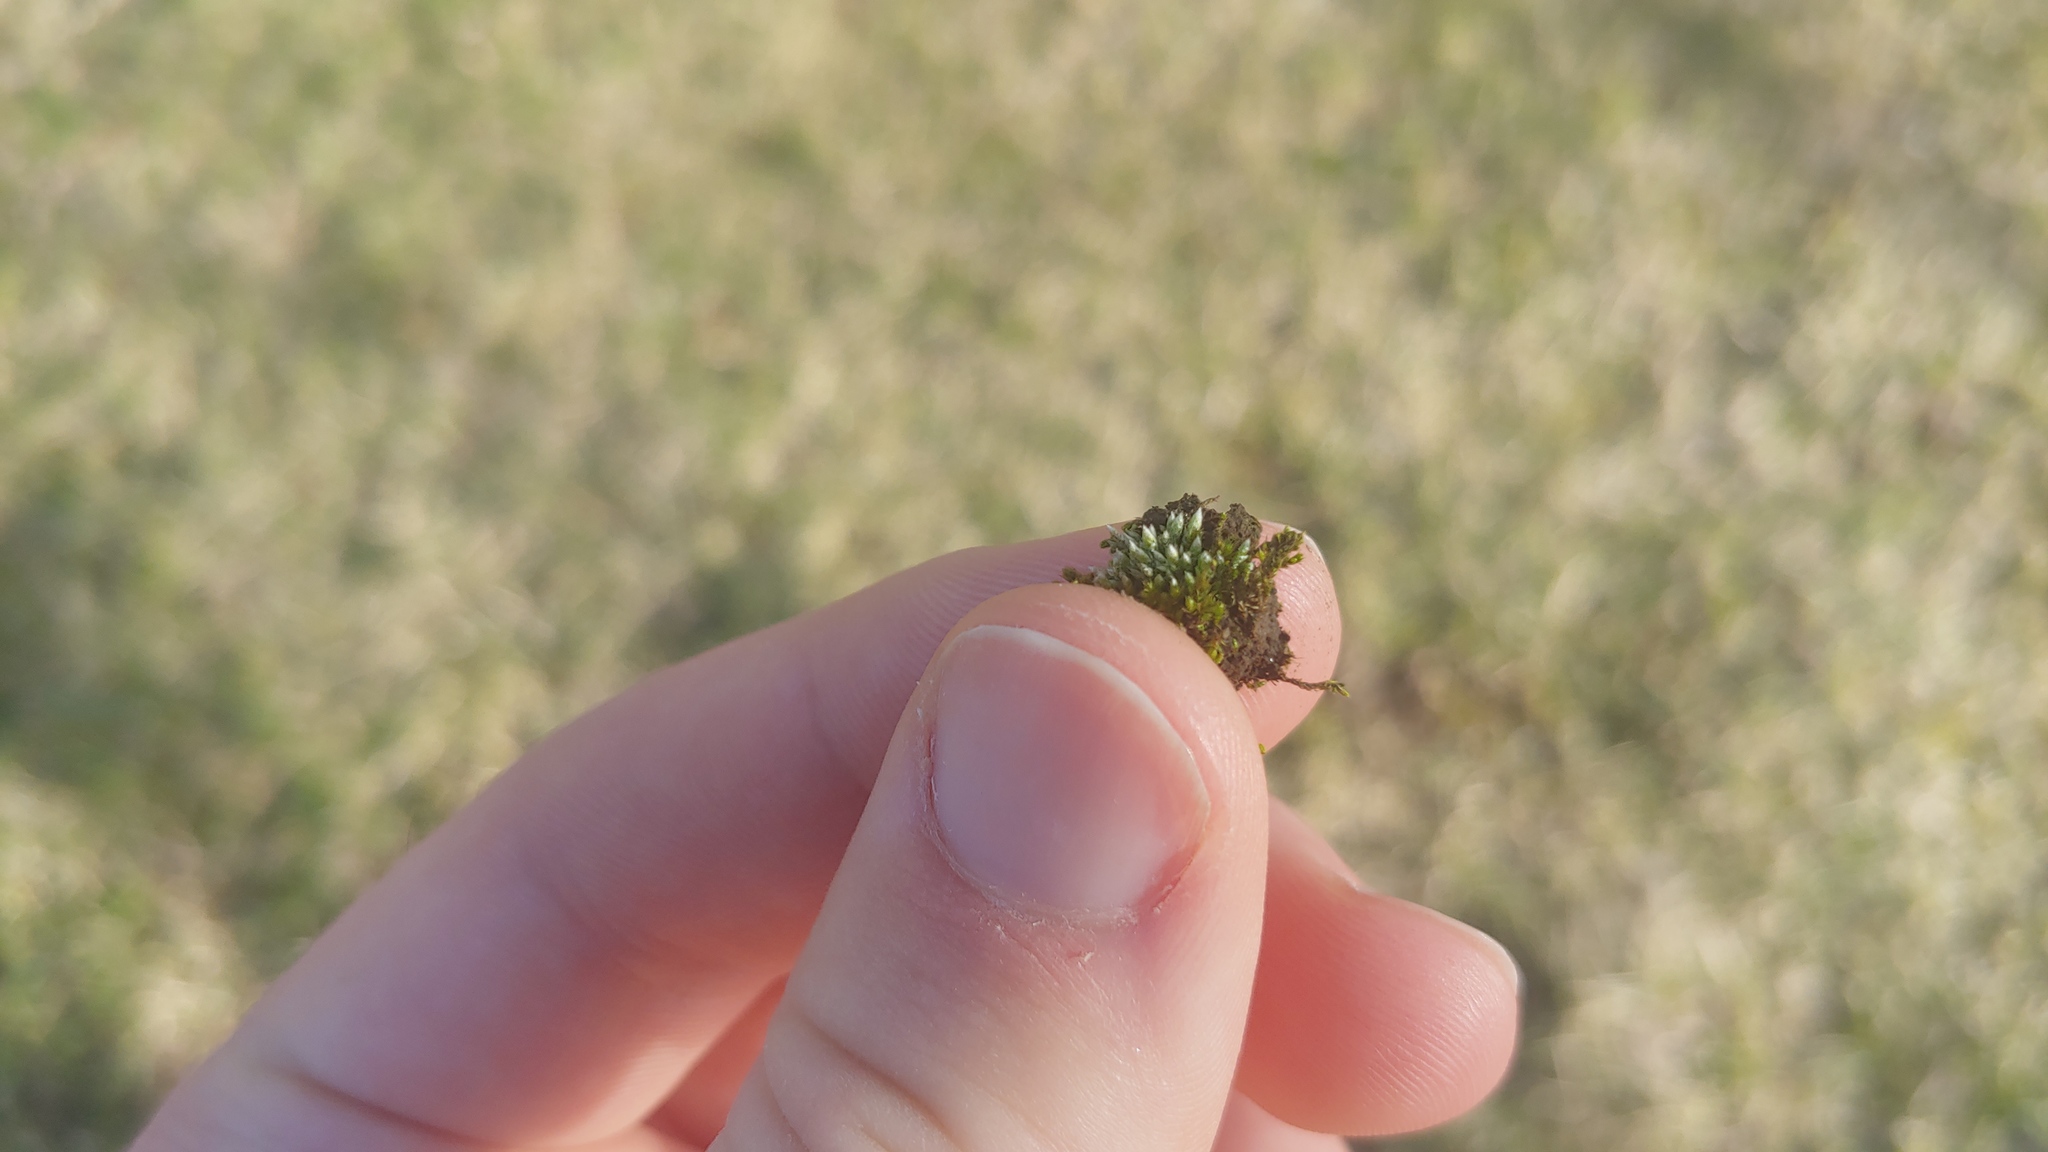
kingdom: Plantae
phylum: Bryophyta
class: Bryopsida
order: Bryales
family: Bryaceae
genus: Bryum
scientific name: Bryum argenteum
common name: Silver-moss
